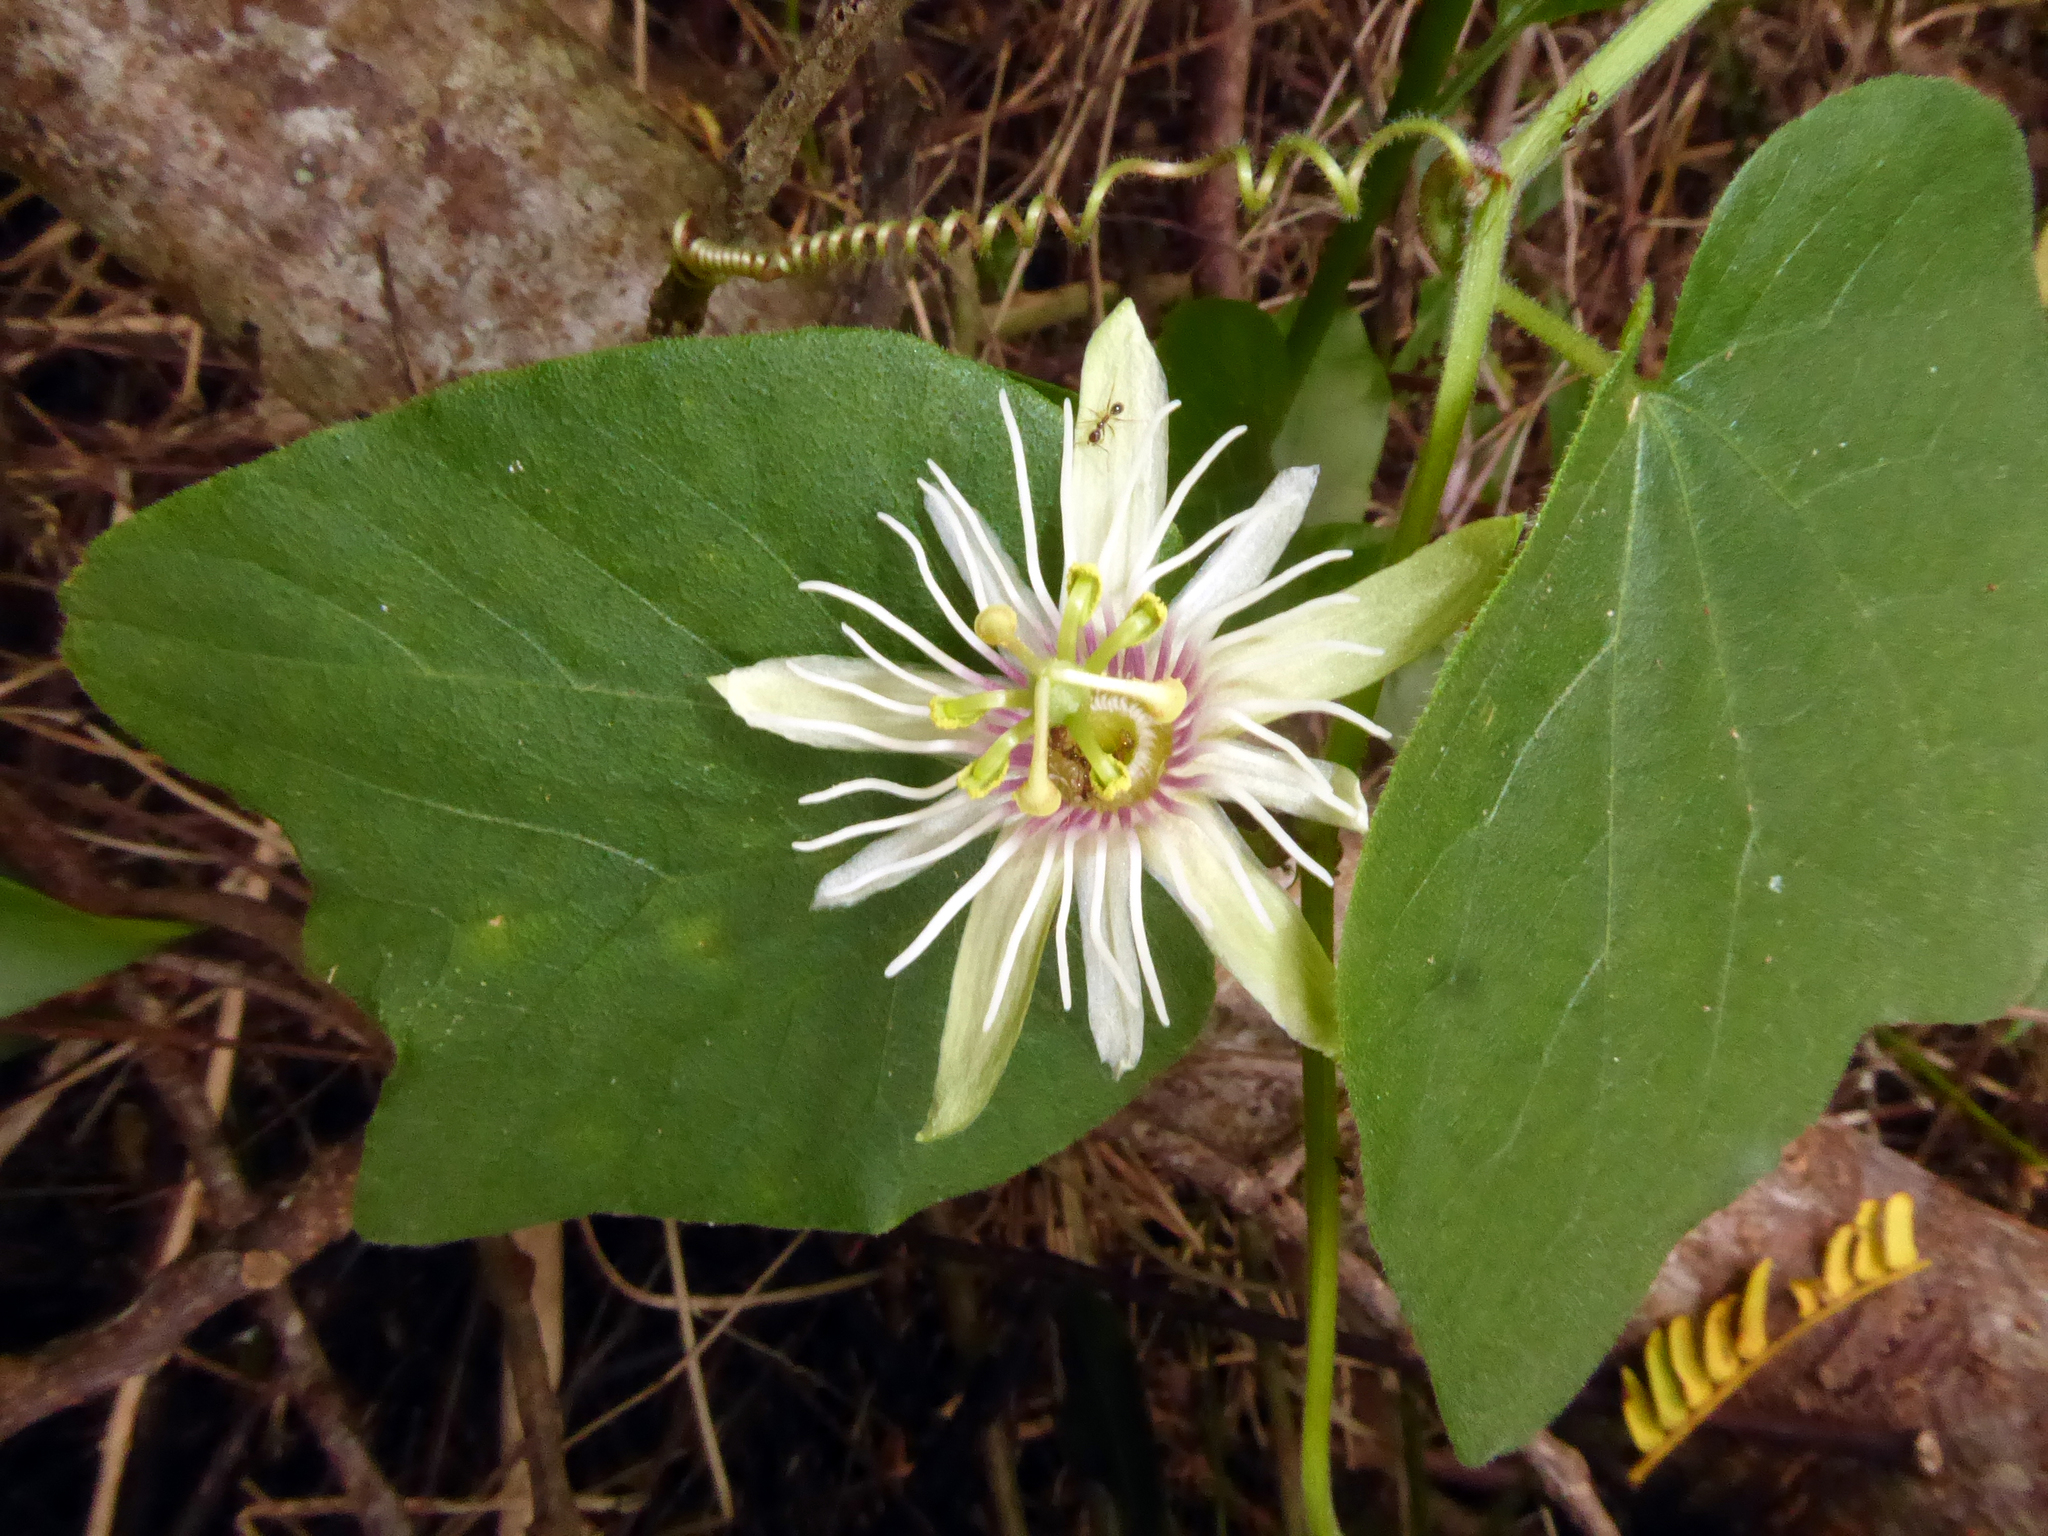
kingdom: Plantae
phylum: Tracheophyta
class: Magnoliopsida
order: Malpighiales
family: Passifloraceae
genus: Passiflora
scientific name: Passiflora rubra
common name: Snakeberry vine
